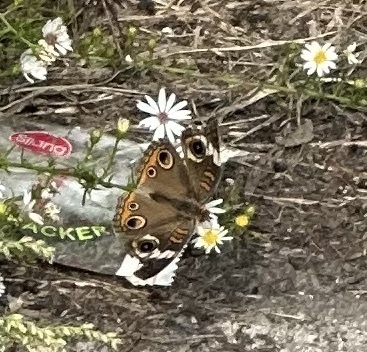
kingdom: Animalia
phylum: Arthropoda
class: Insecta
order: Lepidoptera
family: Nymphalidae
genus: Junonia
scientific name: Junonia coenia
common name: Common buckeye
